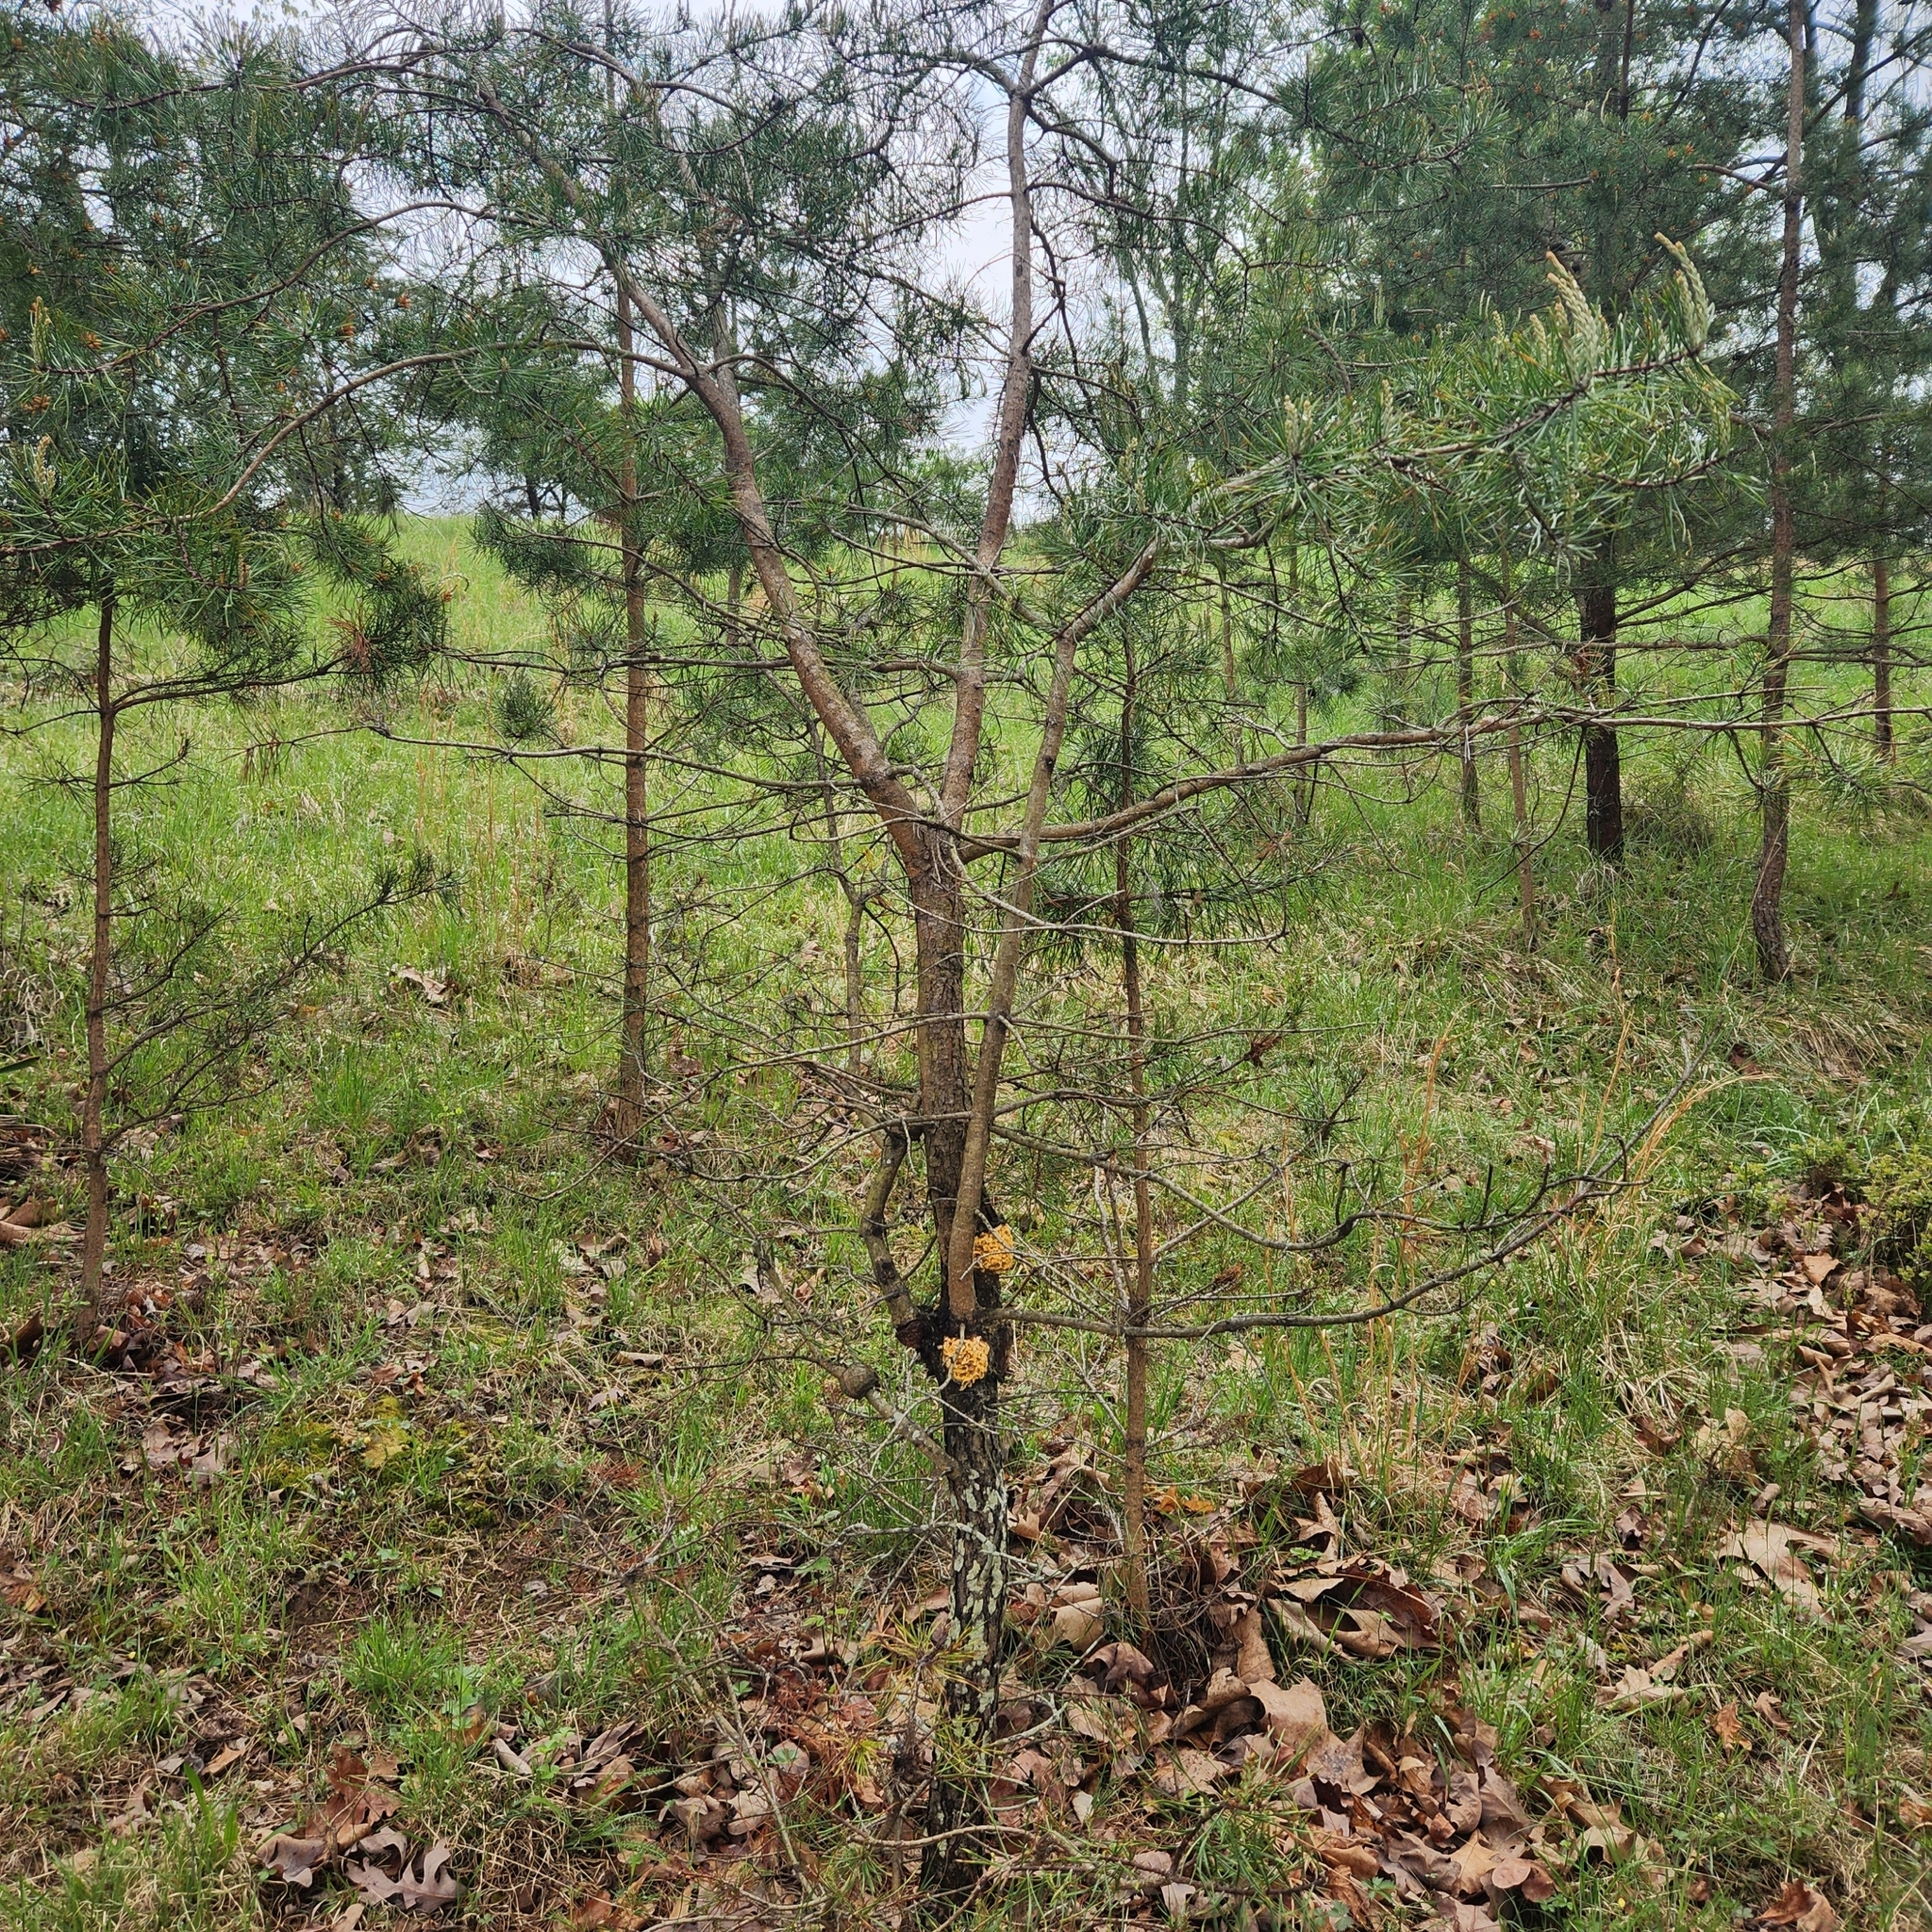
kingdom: Fungi
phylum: Basidiomycota
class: Pucciniomycetes
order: Pucciniales
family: Cronartiaceae
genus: Cronartium
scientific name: Cronartium quercuum
